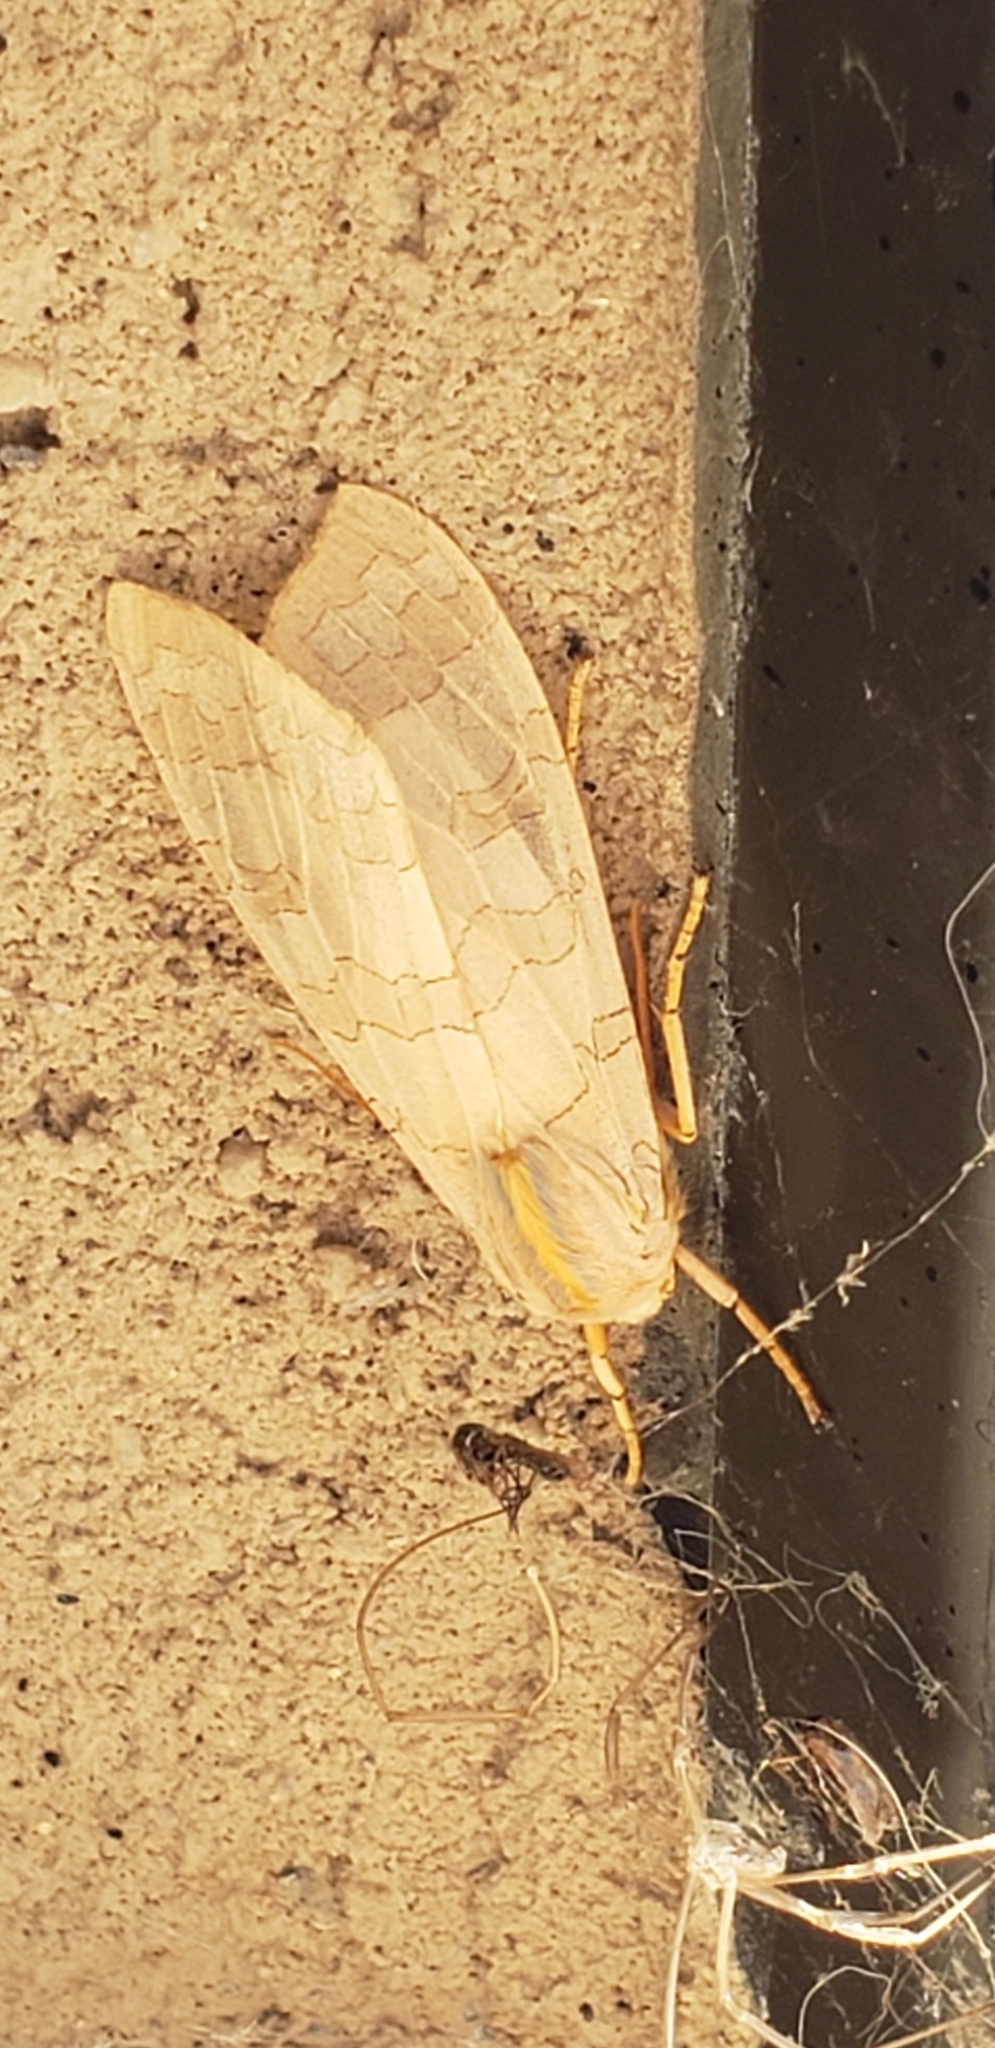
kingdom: Animalia
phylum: Arthropoda
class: Insecta
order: Lepidoptera
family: Erebidae
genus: Halysidota
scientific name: Halysidota
